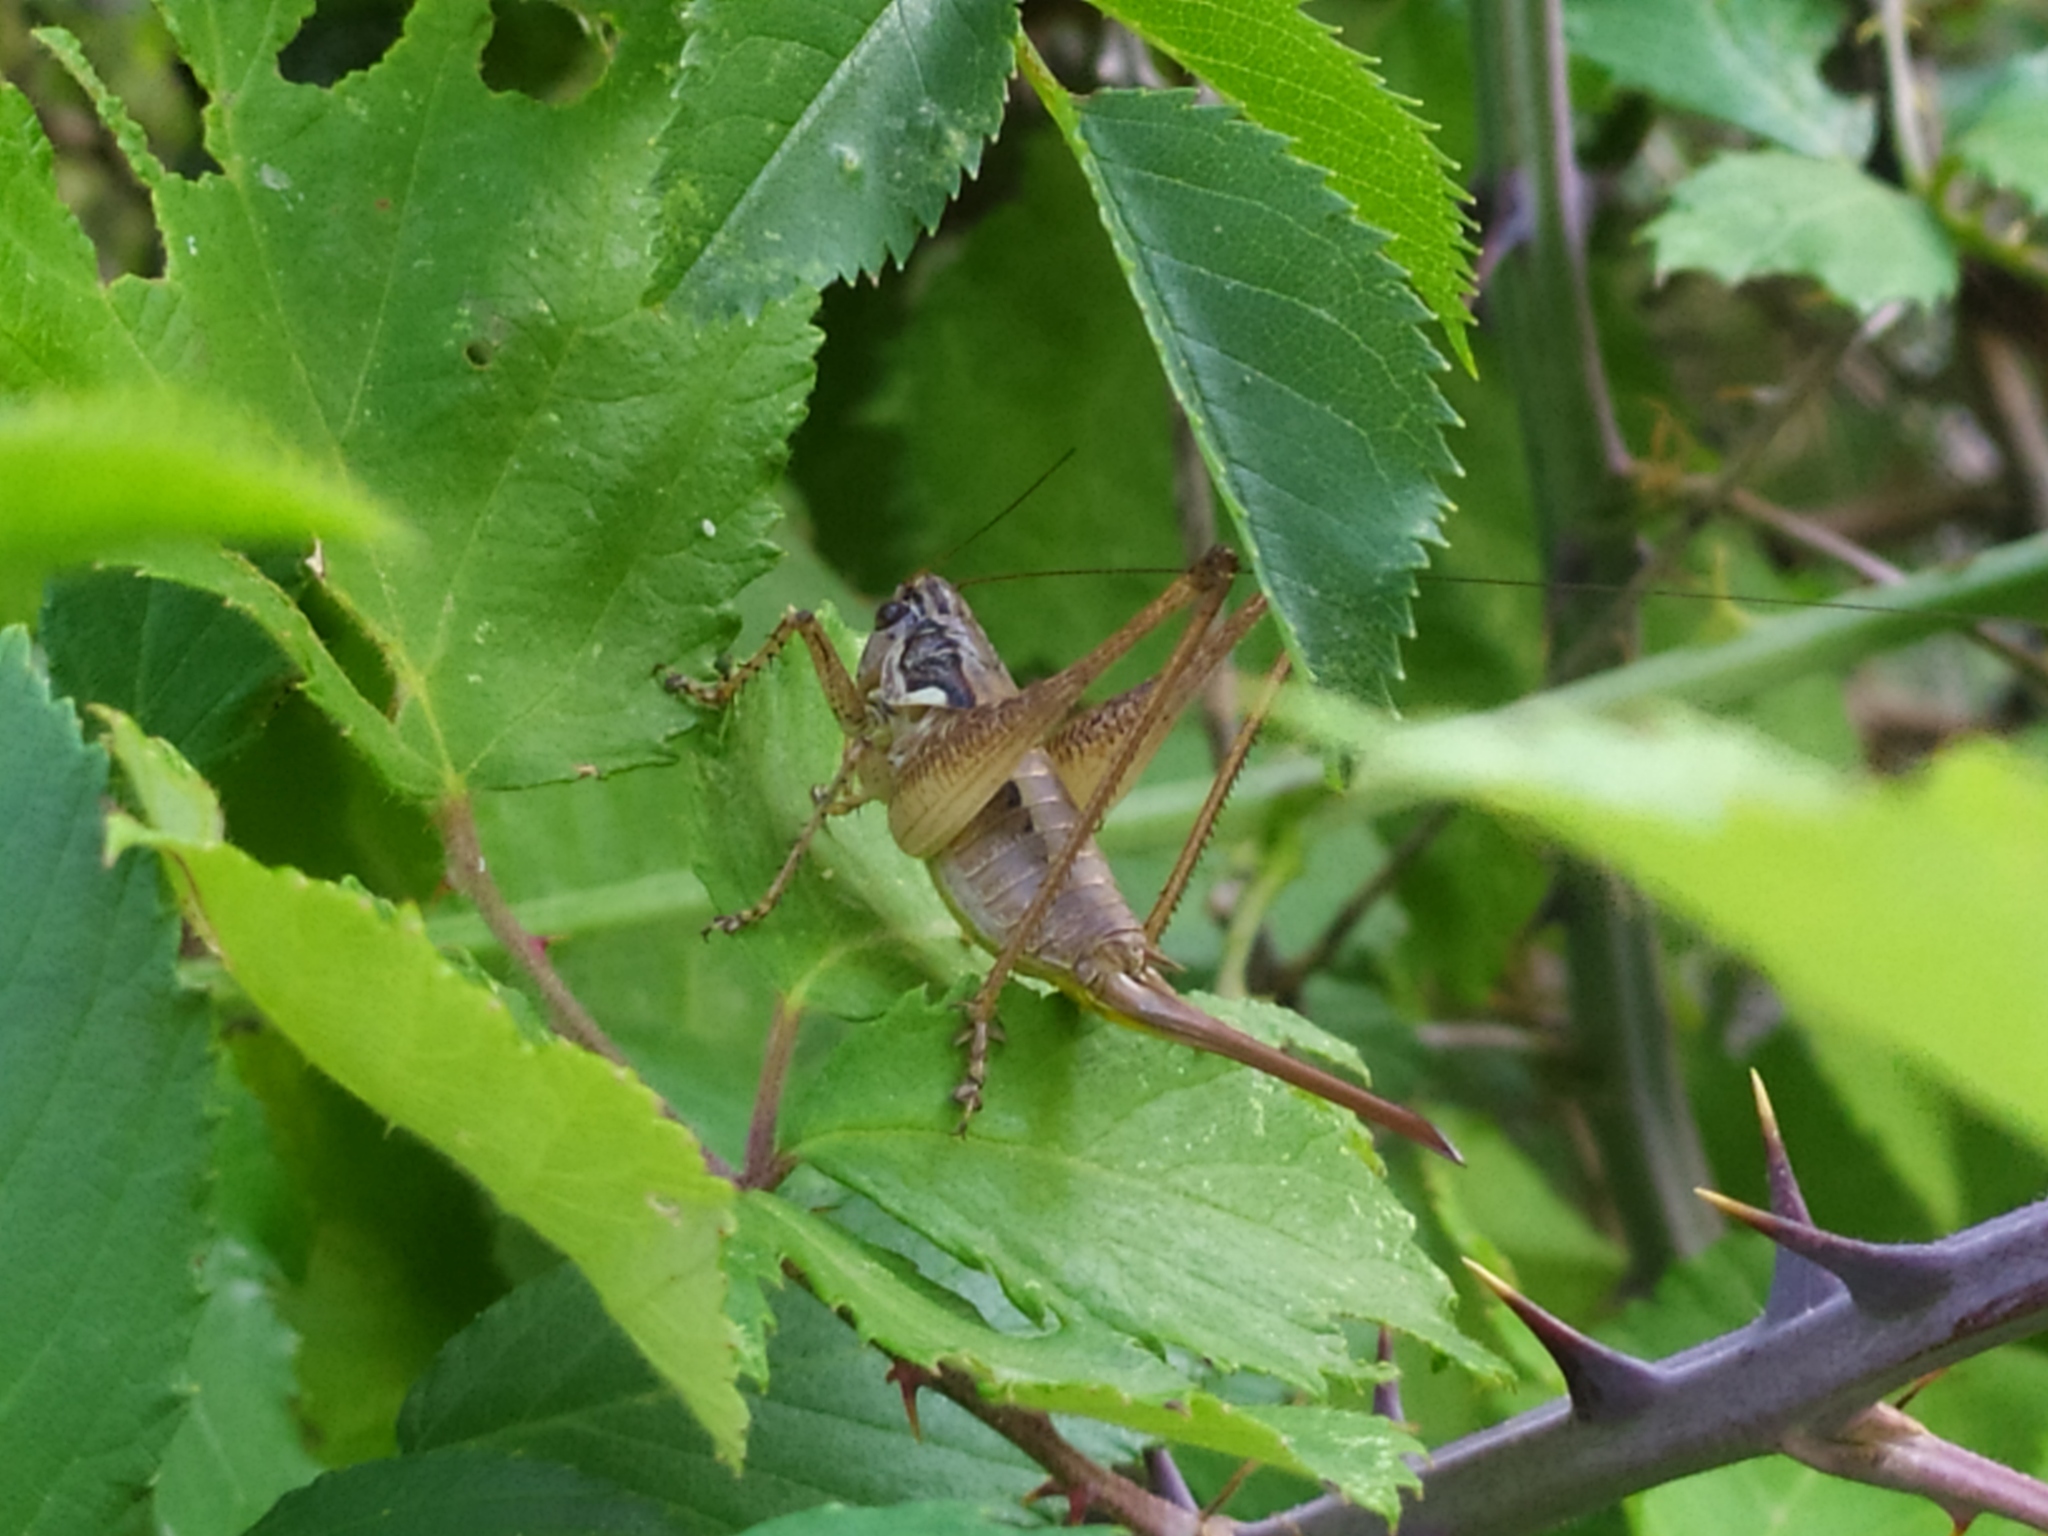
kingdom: Animalia
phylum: Arthropoda
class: Insecta
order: Orthoptera
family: Tettigoniidae
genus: Pachytrachis
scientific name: Pachytrachis striolatus
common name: Striated bush-cricket
